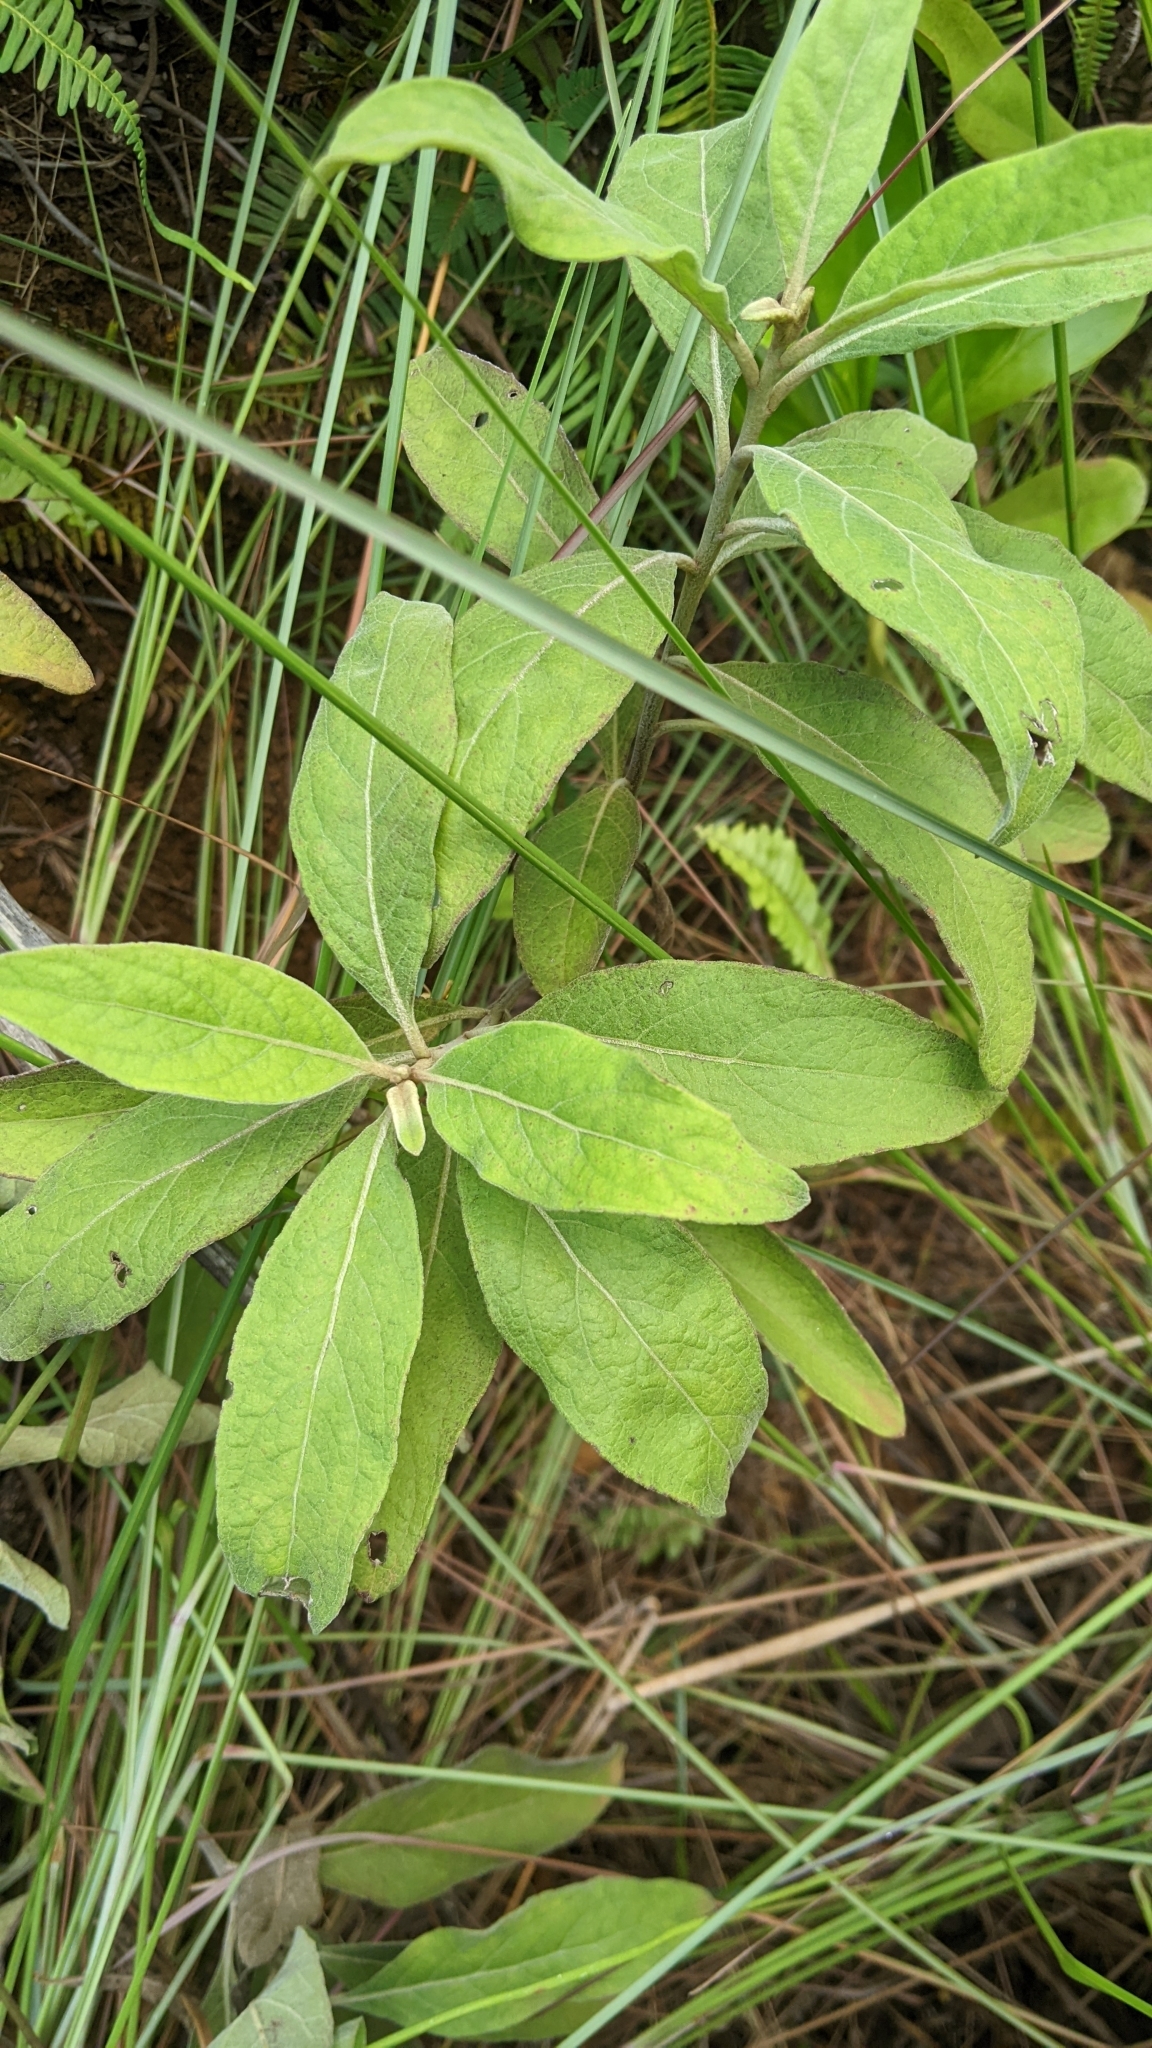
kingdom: Plantae
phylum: Tracheophyta
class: Magnoliopsida
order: Asterales
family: Asteraceae
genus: Pluchea
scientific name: Pluchea carolinensis
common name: Marsh fleabane
